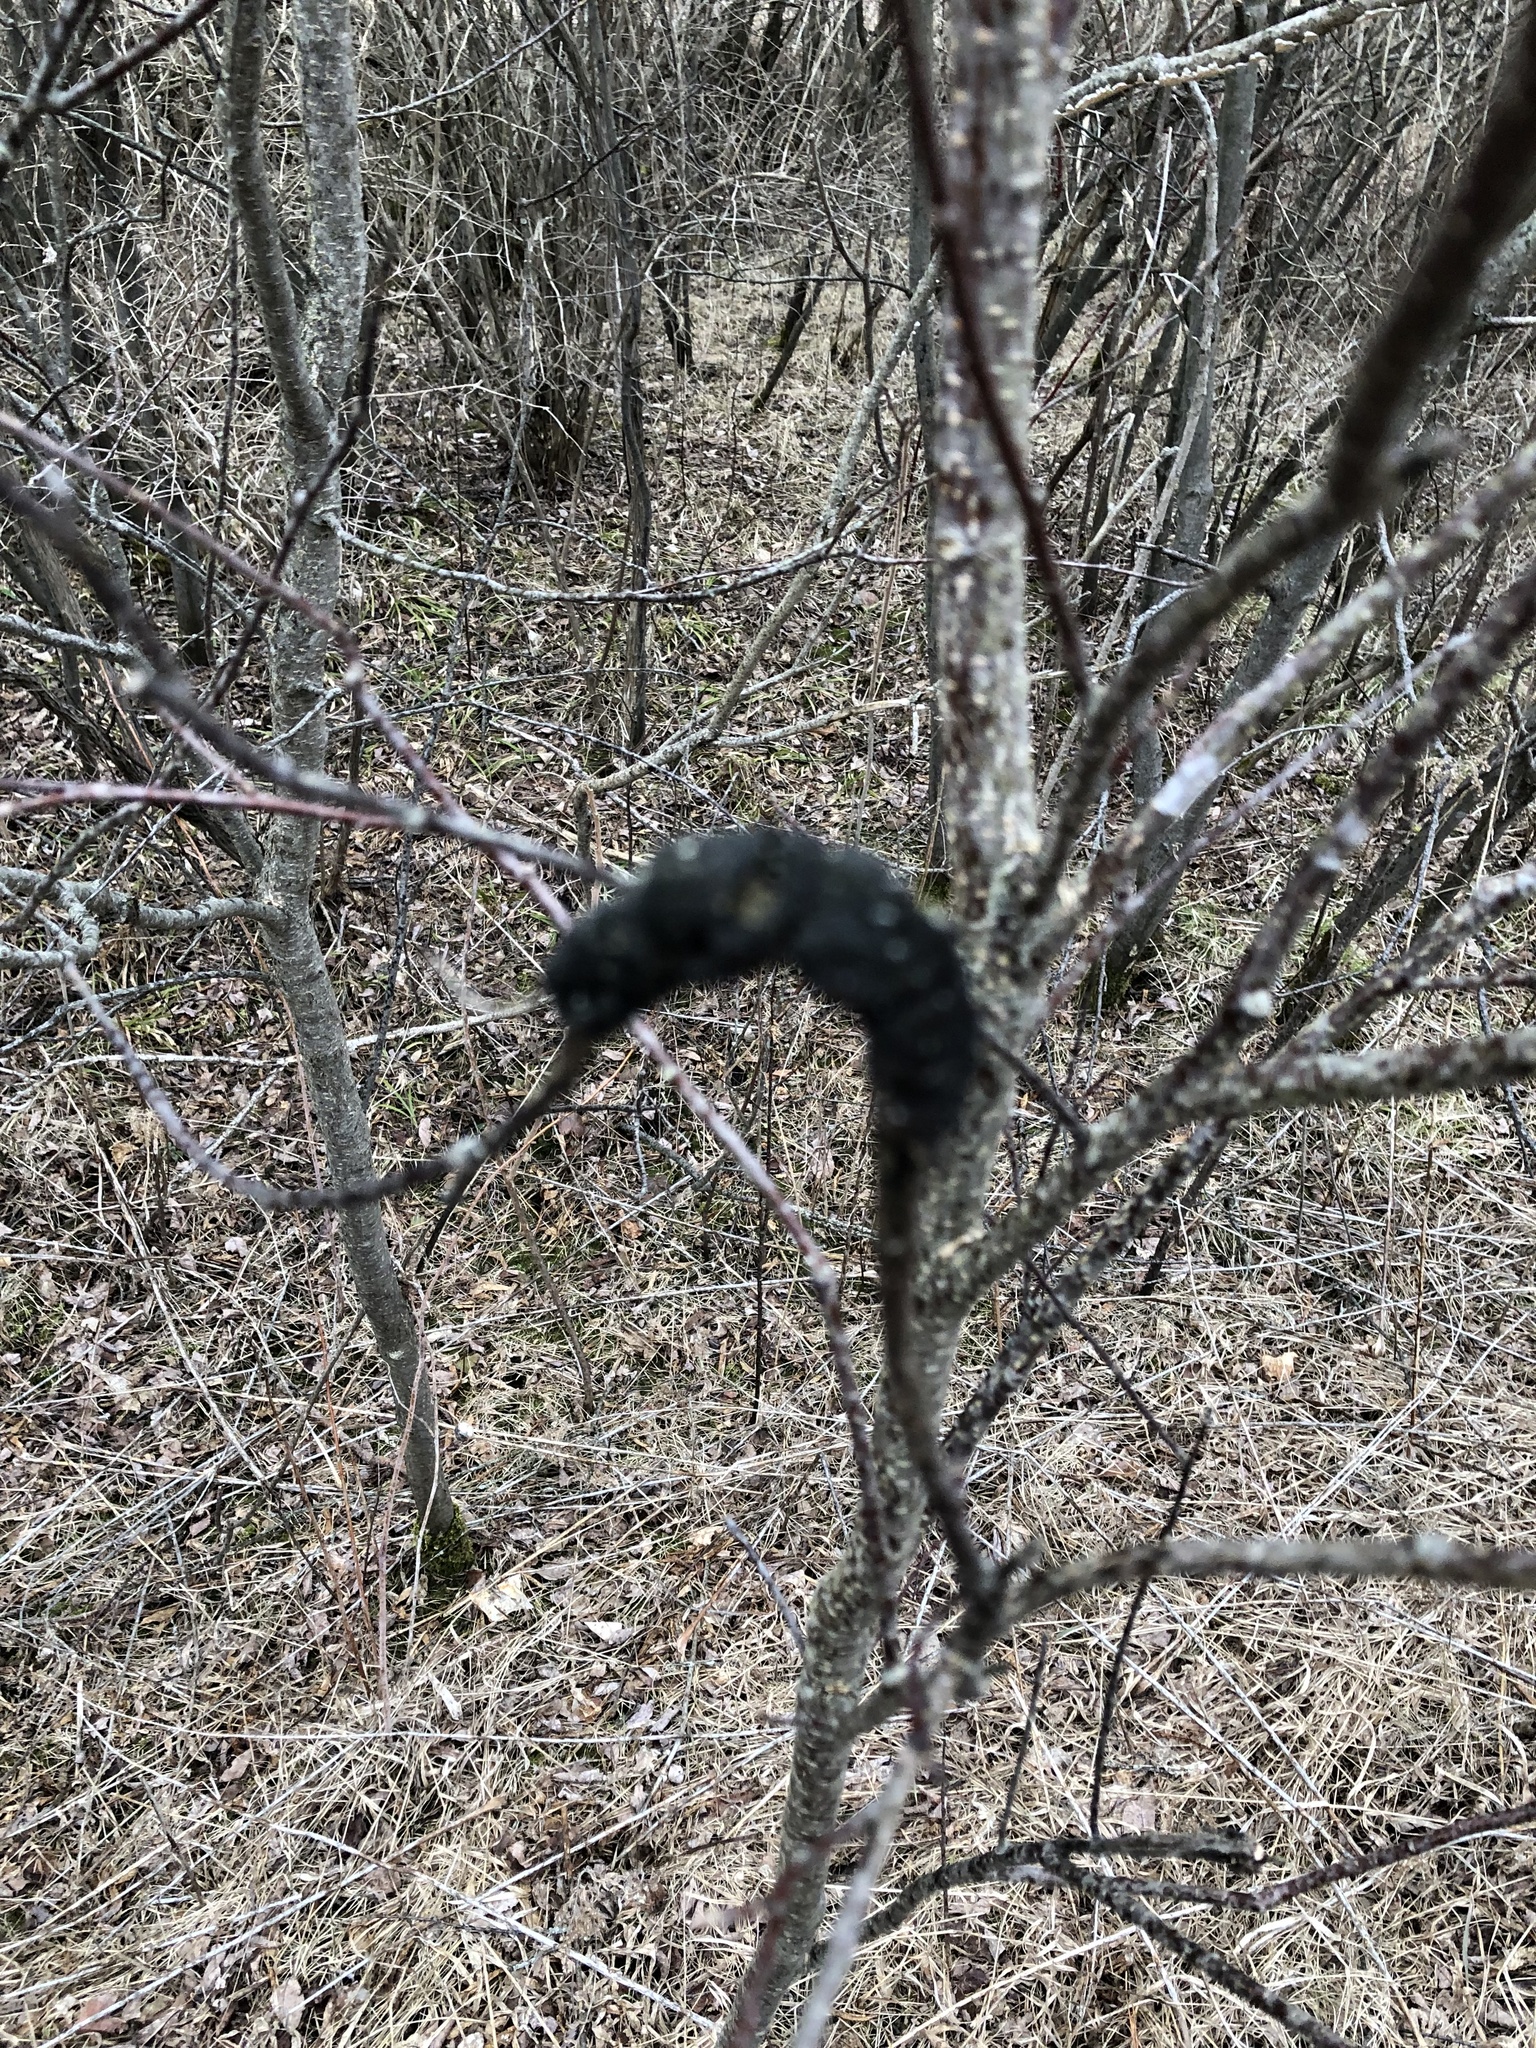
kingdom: Fungi
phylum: Ascomycota
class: Dothideomycetes
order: Venturiales
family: Venturiaceae
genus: Apiosporina
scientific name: Apiosporina morbosa
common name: Black knot
